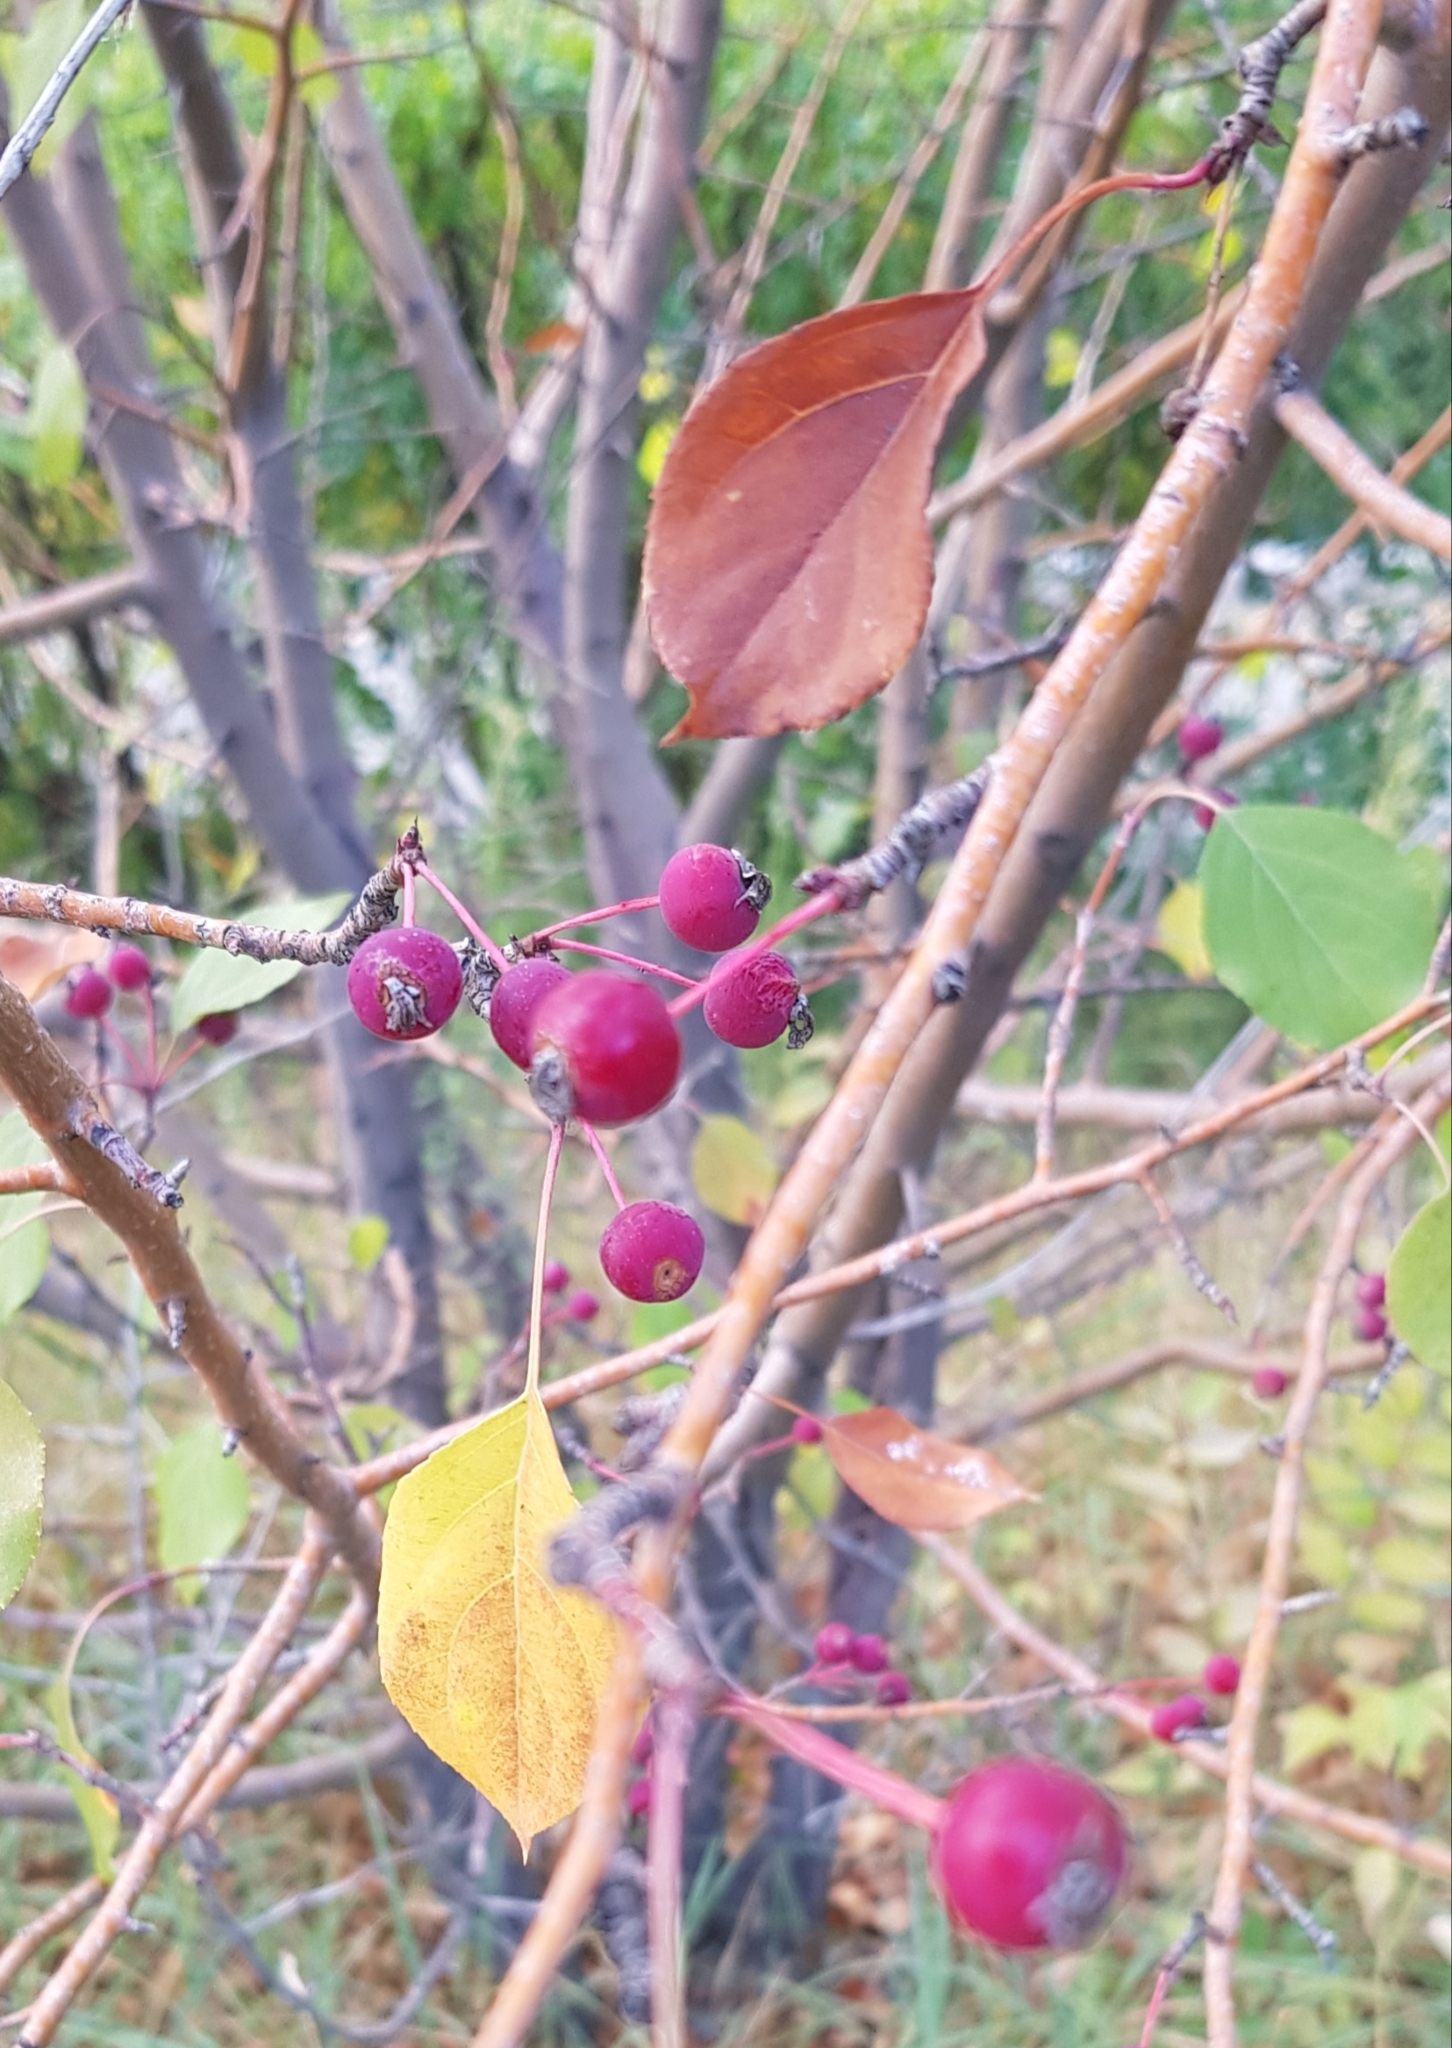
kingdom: Plantae
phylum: Tracheophyta
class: Magnoliopsida
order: Rosales
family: Rosaceae
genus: Malus
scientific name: Malus baccata
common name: Siberian crab
